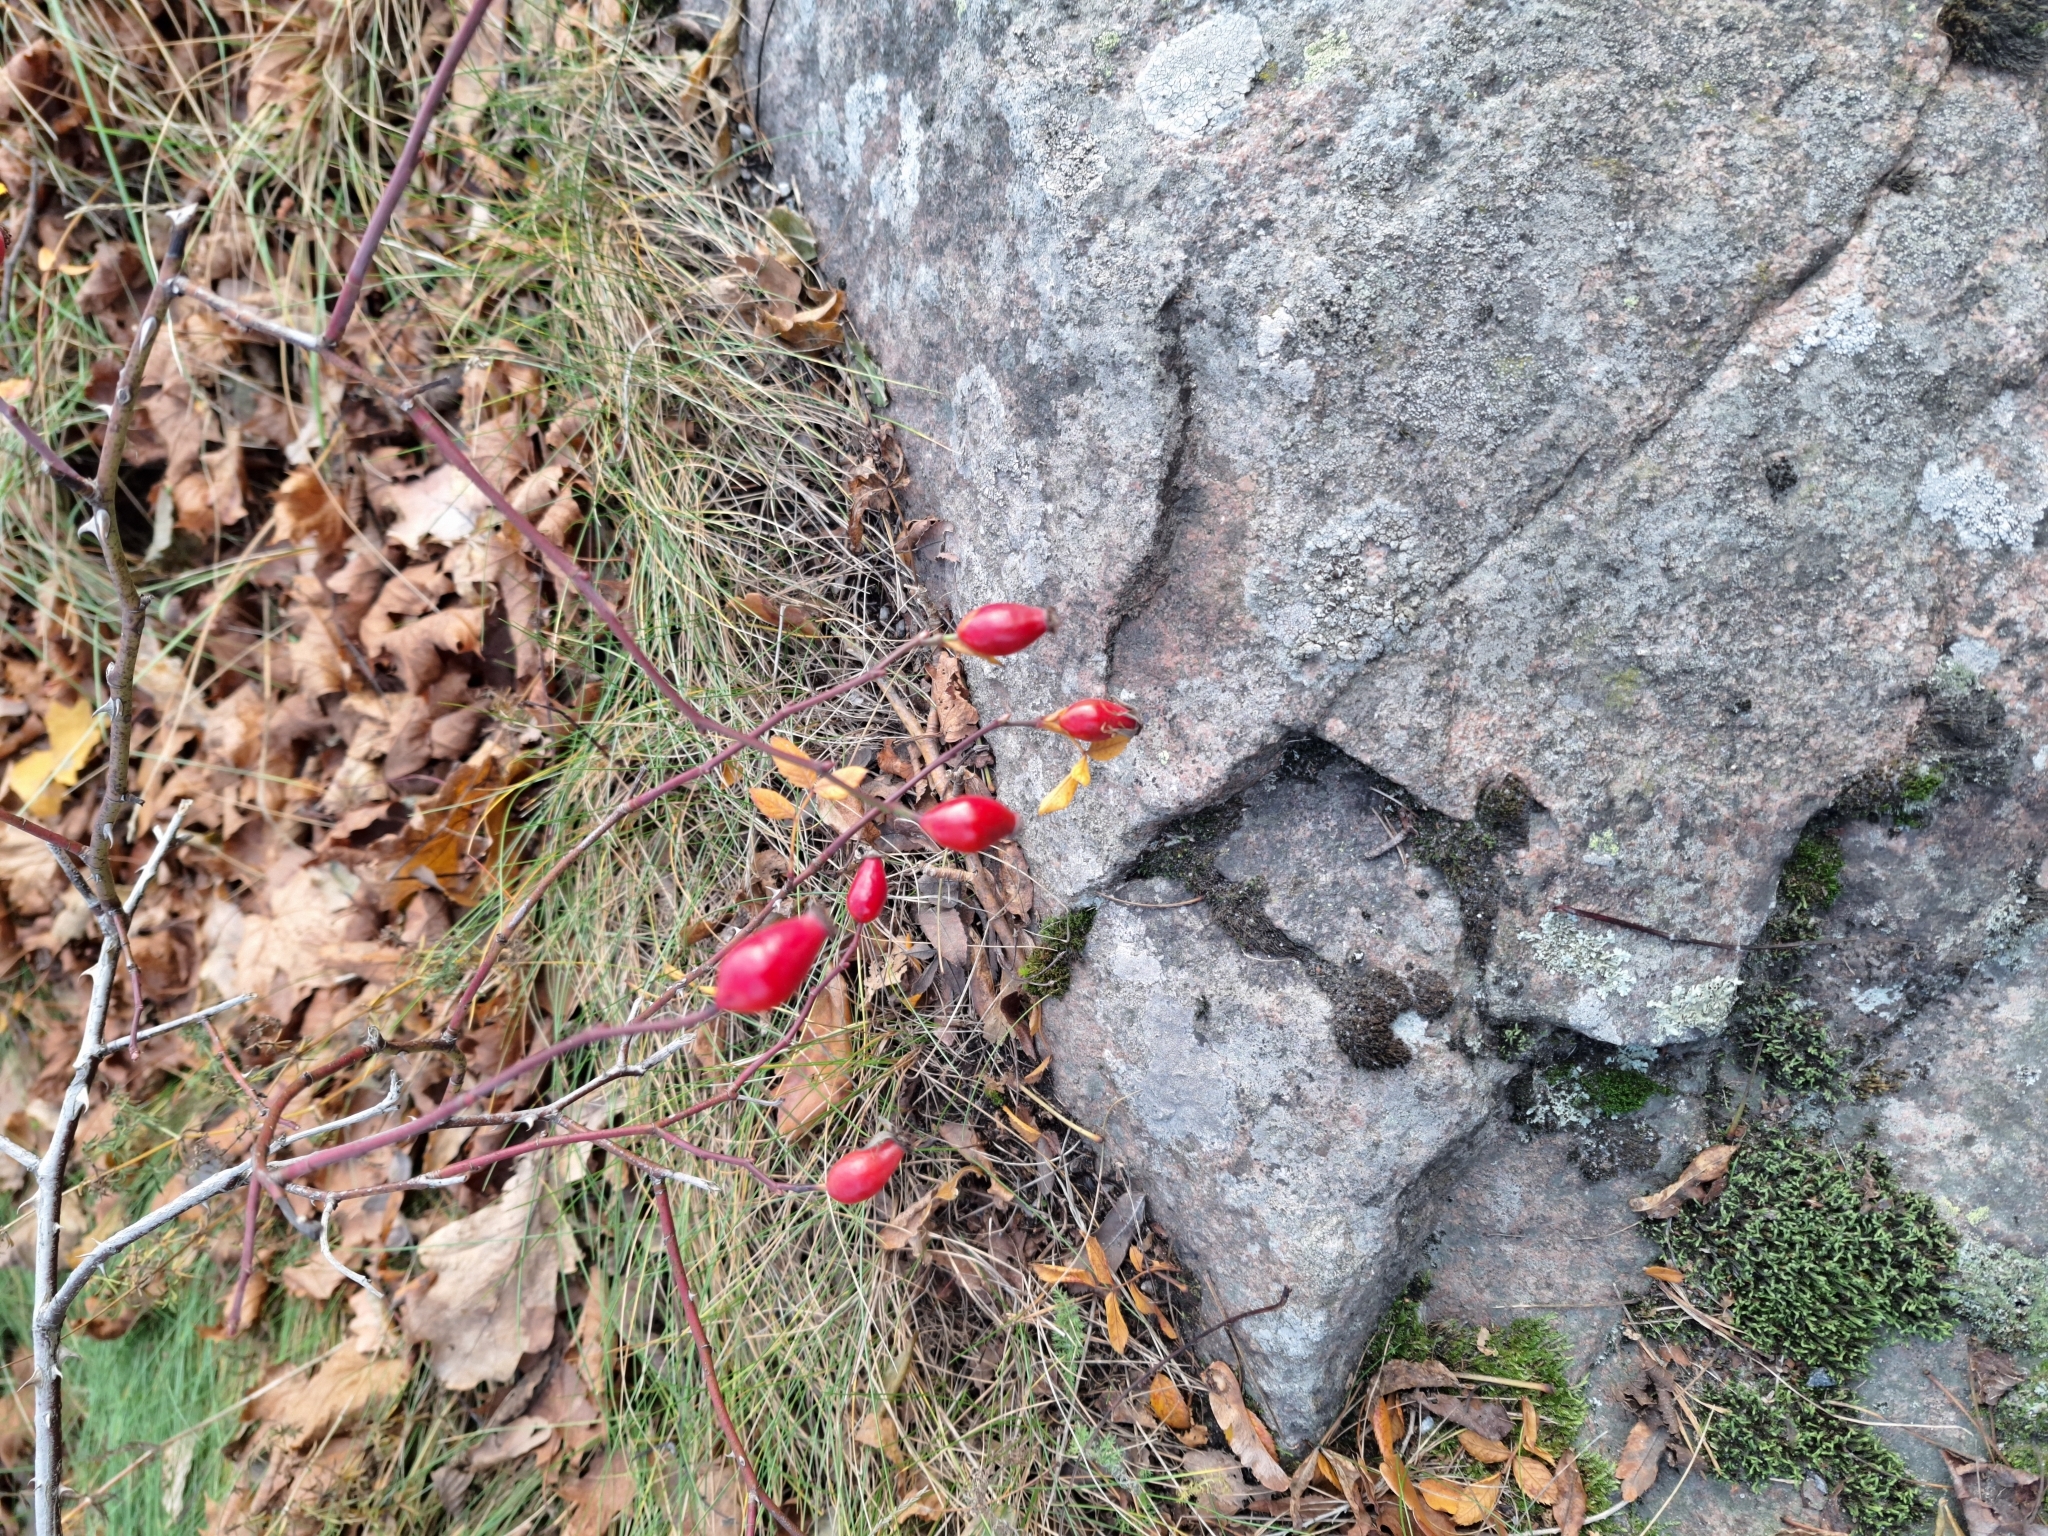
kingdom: Plantae
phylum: Tracheophyta
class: Magnoliopsida
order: Rosales
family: Rosaceae
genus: Rosa
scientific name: Rosa canina
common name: Dog rose
